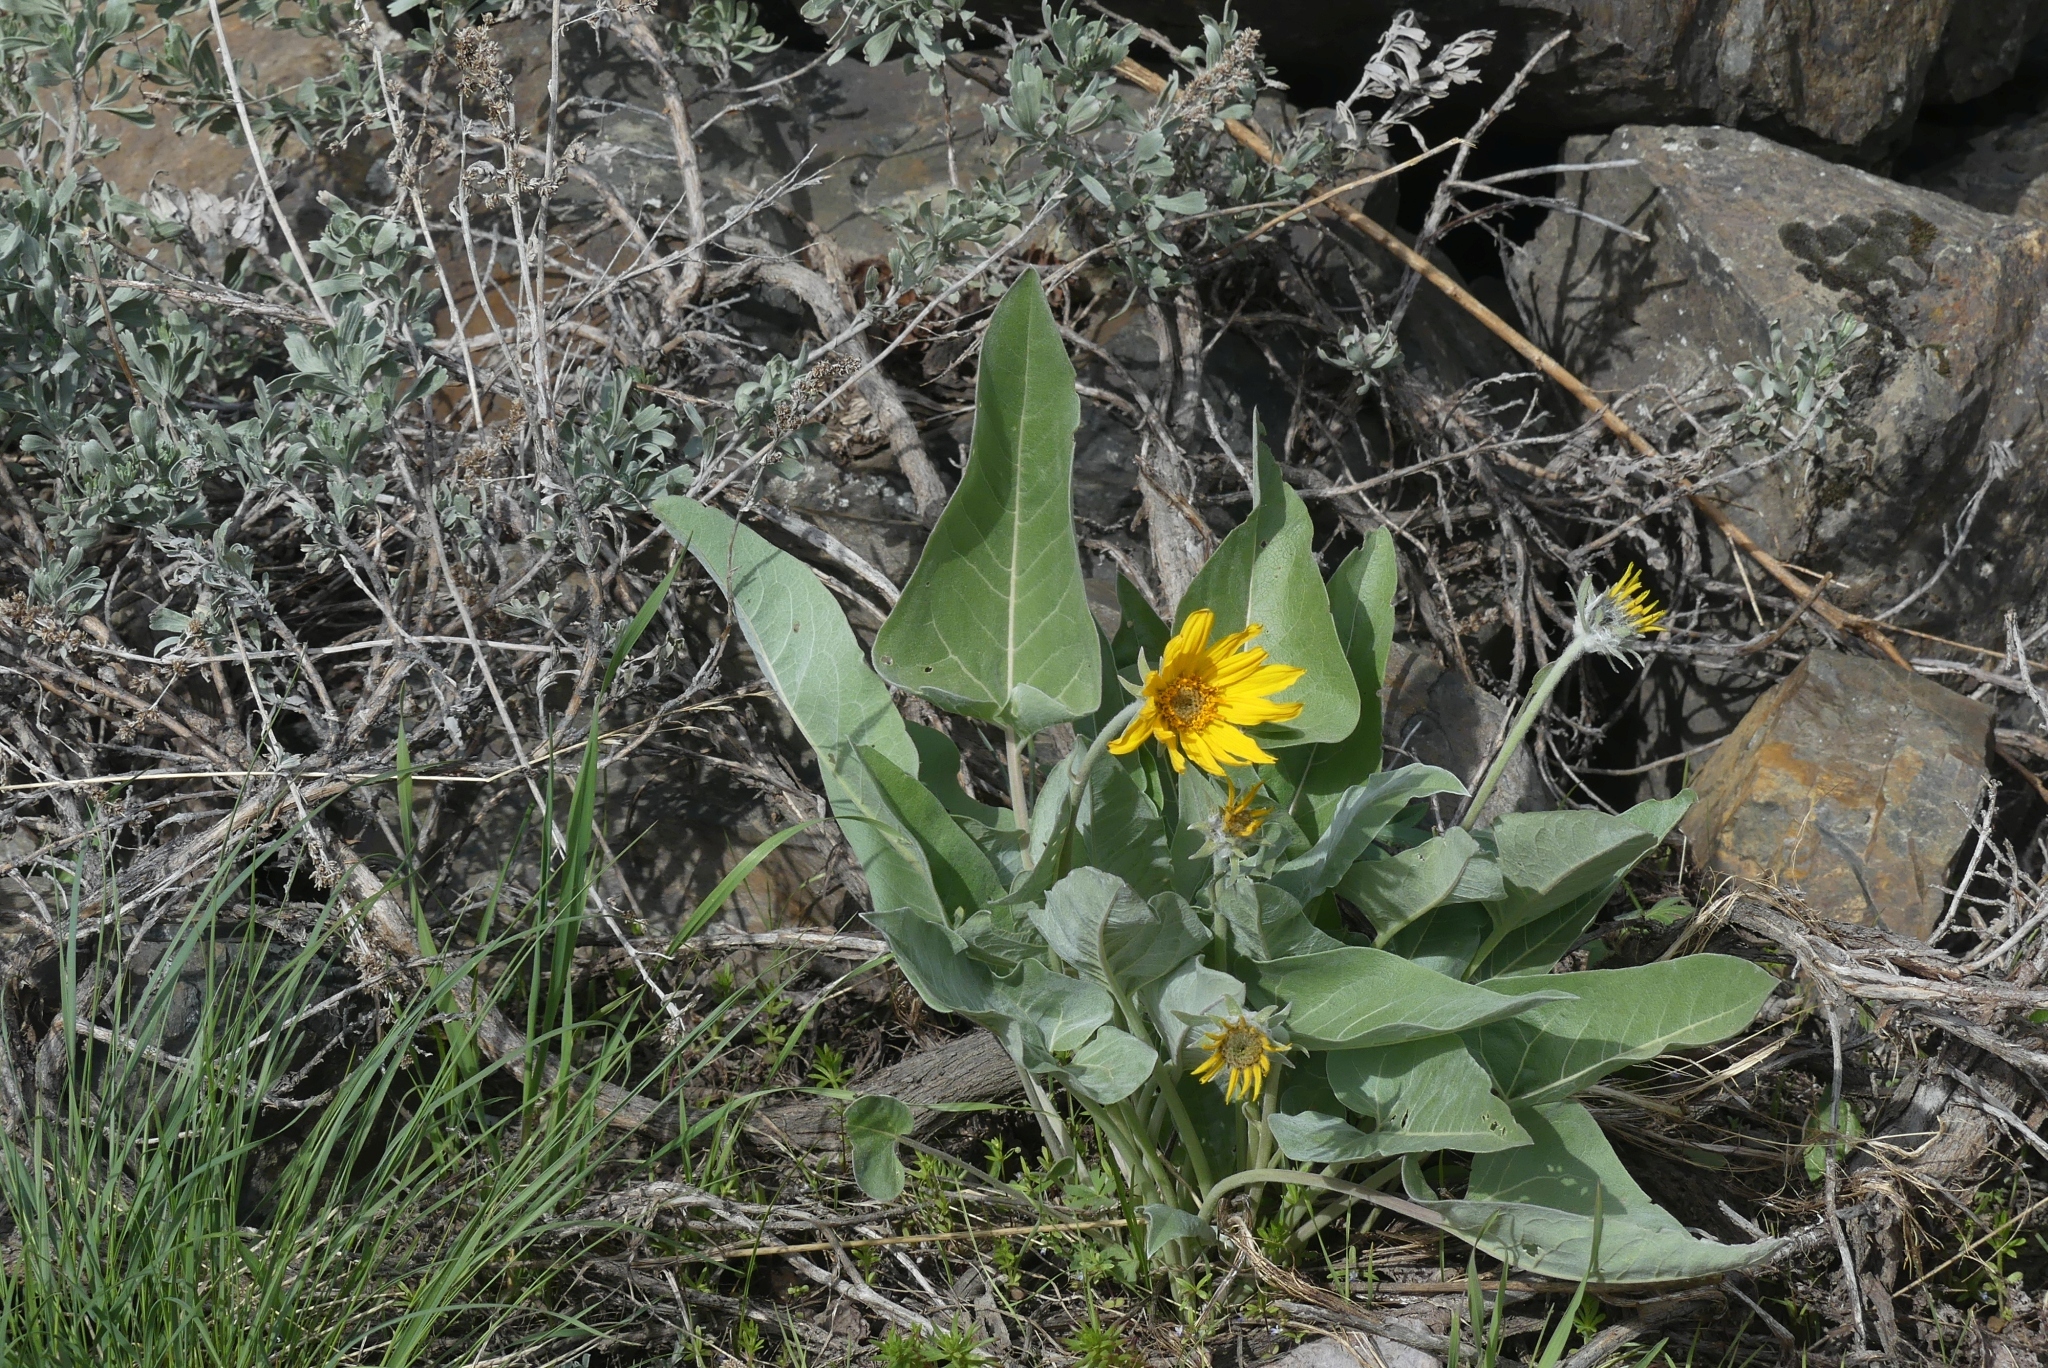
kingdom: Plantae
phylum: Tracheophyta
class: Magnoliopsida
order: Asterales
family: Asteraceae
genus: Wyethia
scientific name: Wyethia sagittata
